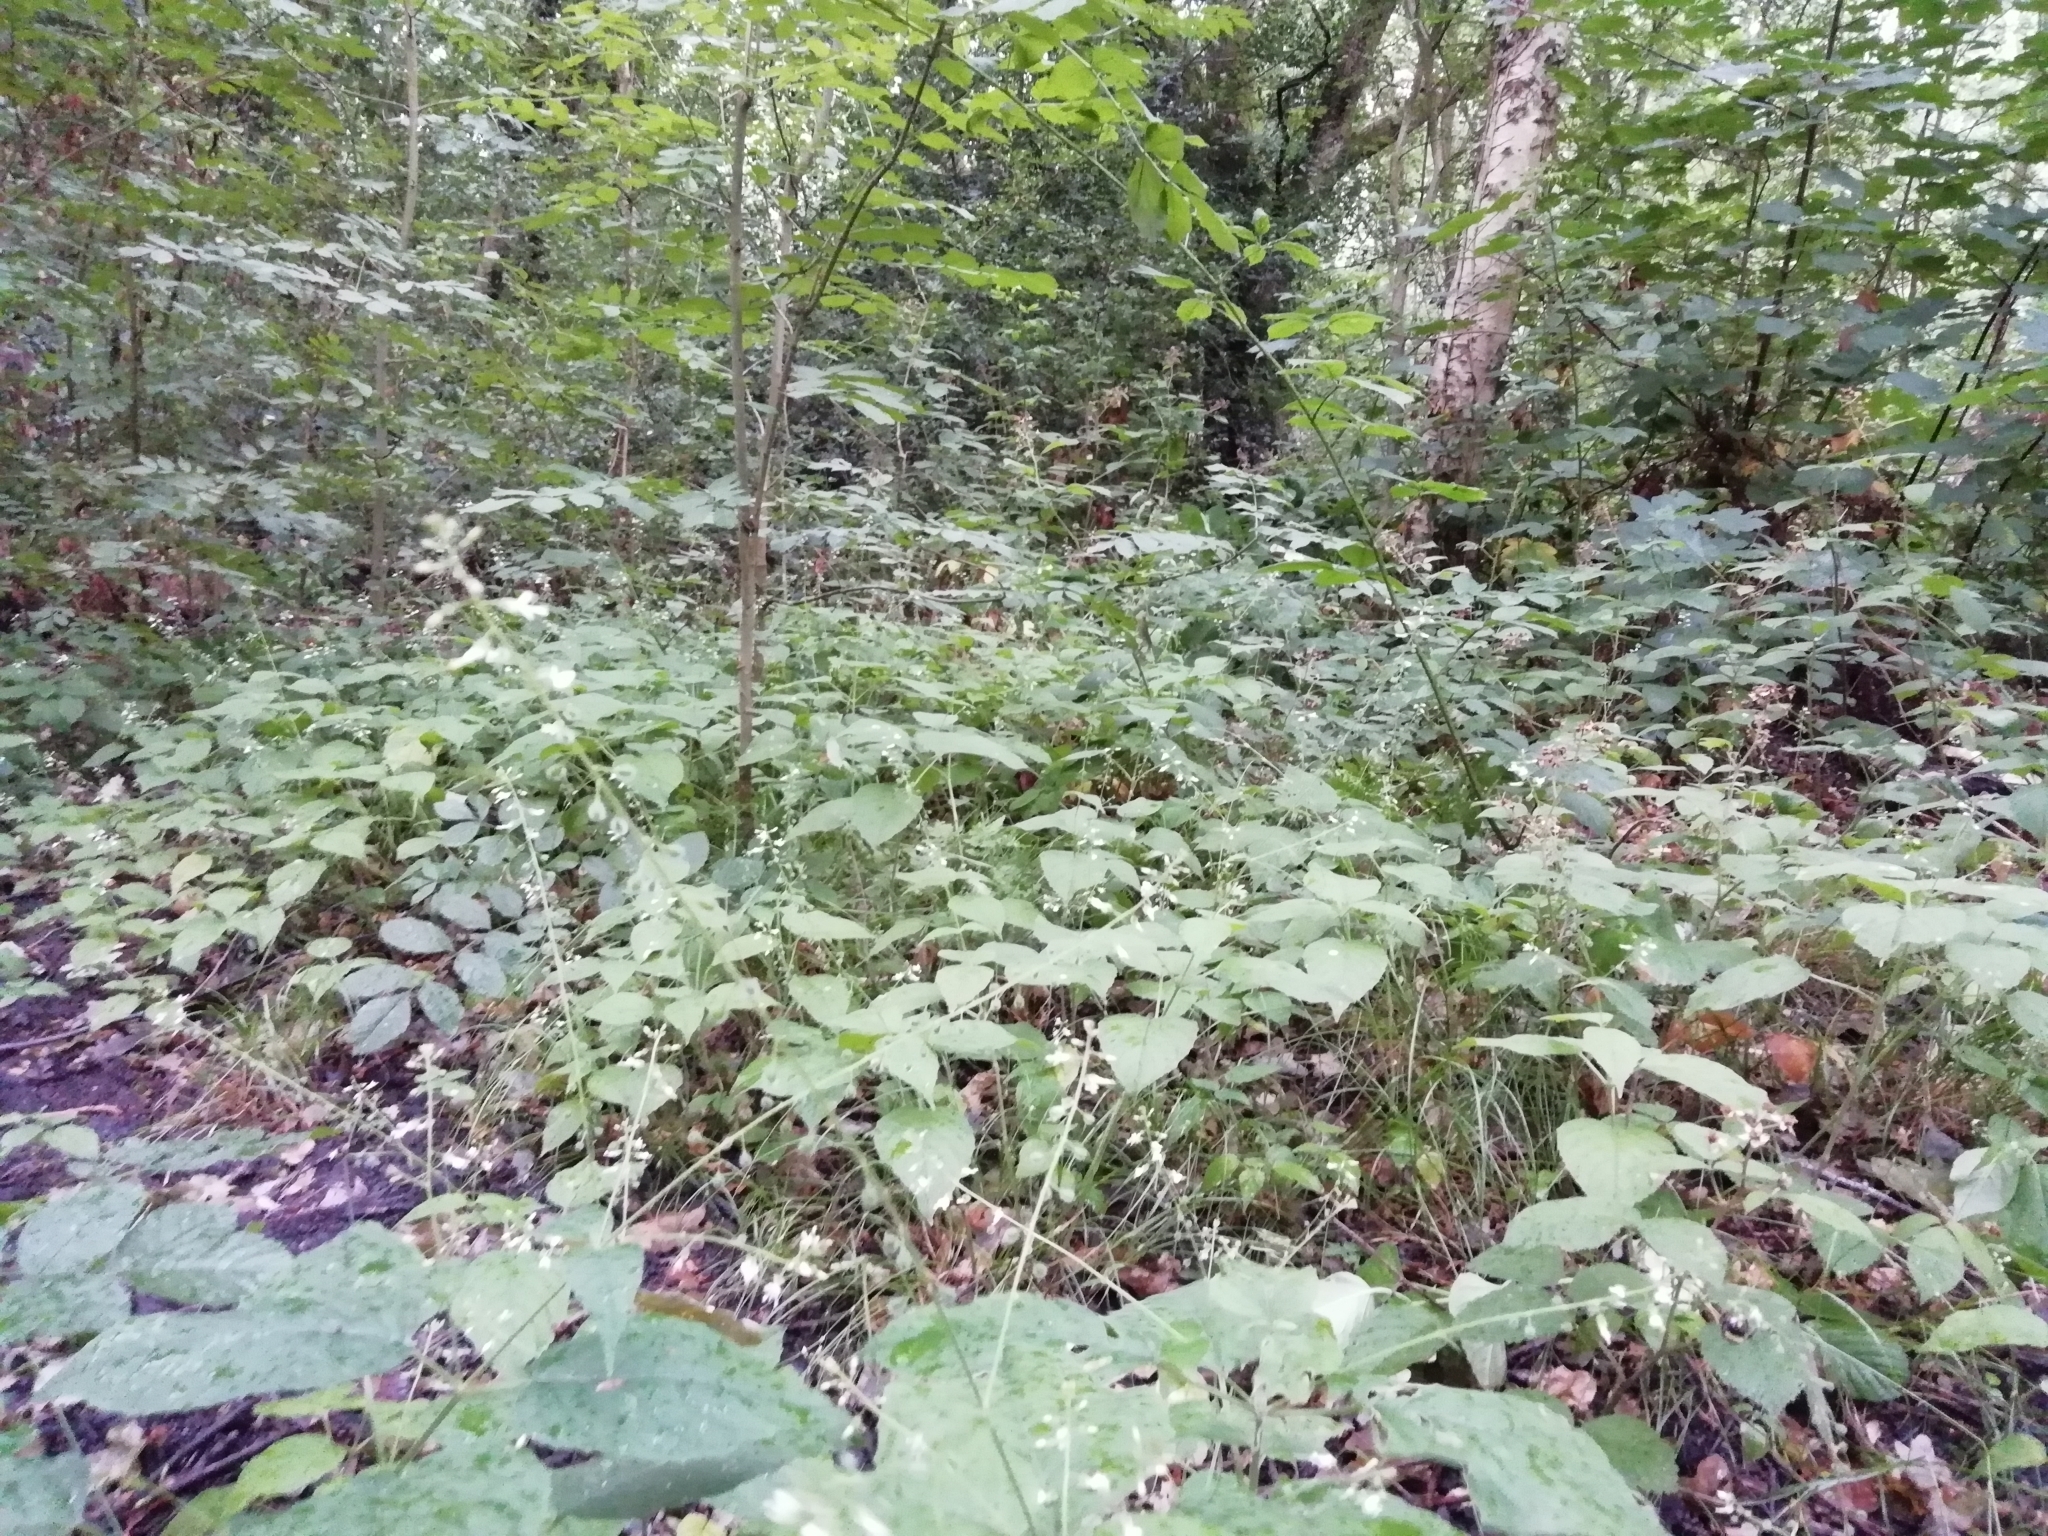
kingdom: Plantae
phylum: Tracheophyta
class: Magnoliopsida
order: Myrtales
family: Onagraceae
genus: Circaea
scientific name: Circaea lutetiana
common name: Enchanter's-nightshade
